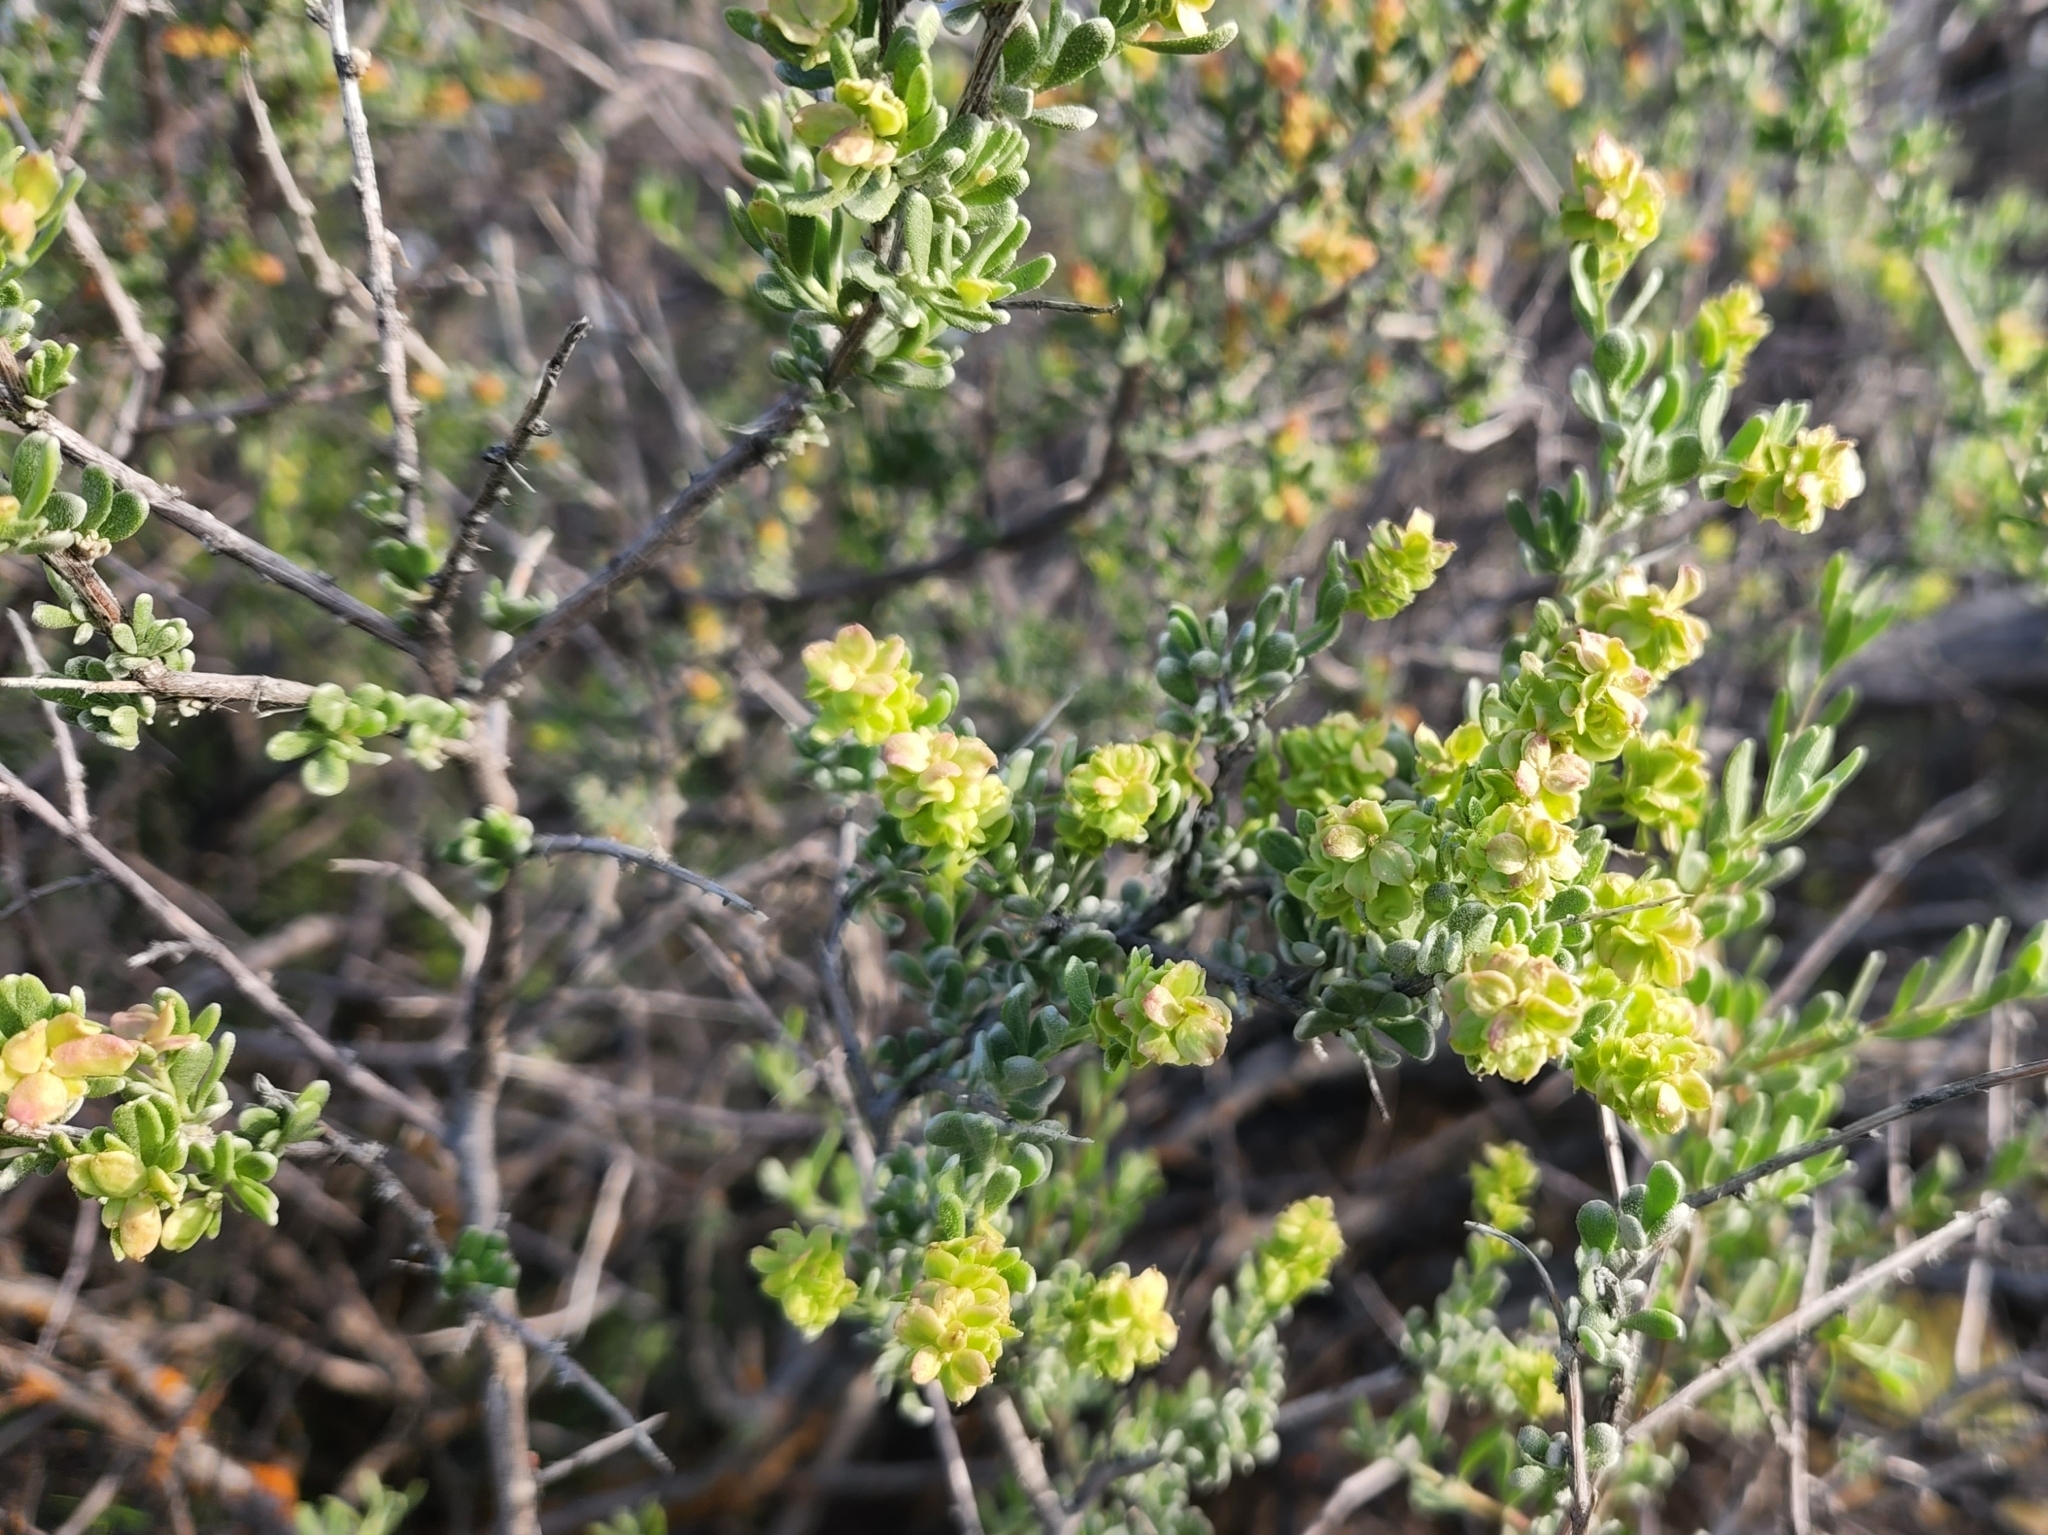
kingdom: Plantae
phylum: Tracheophyta
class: Magnoliopsida
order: Caryophyllales
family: Amaranthaceae
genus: Grayia
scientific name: Grayia spinosa
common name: Spiny hopsage
